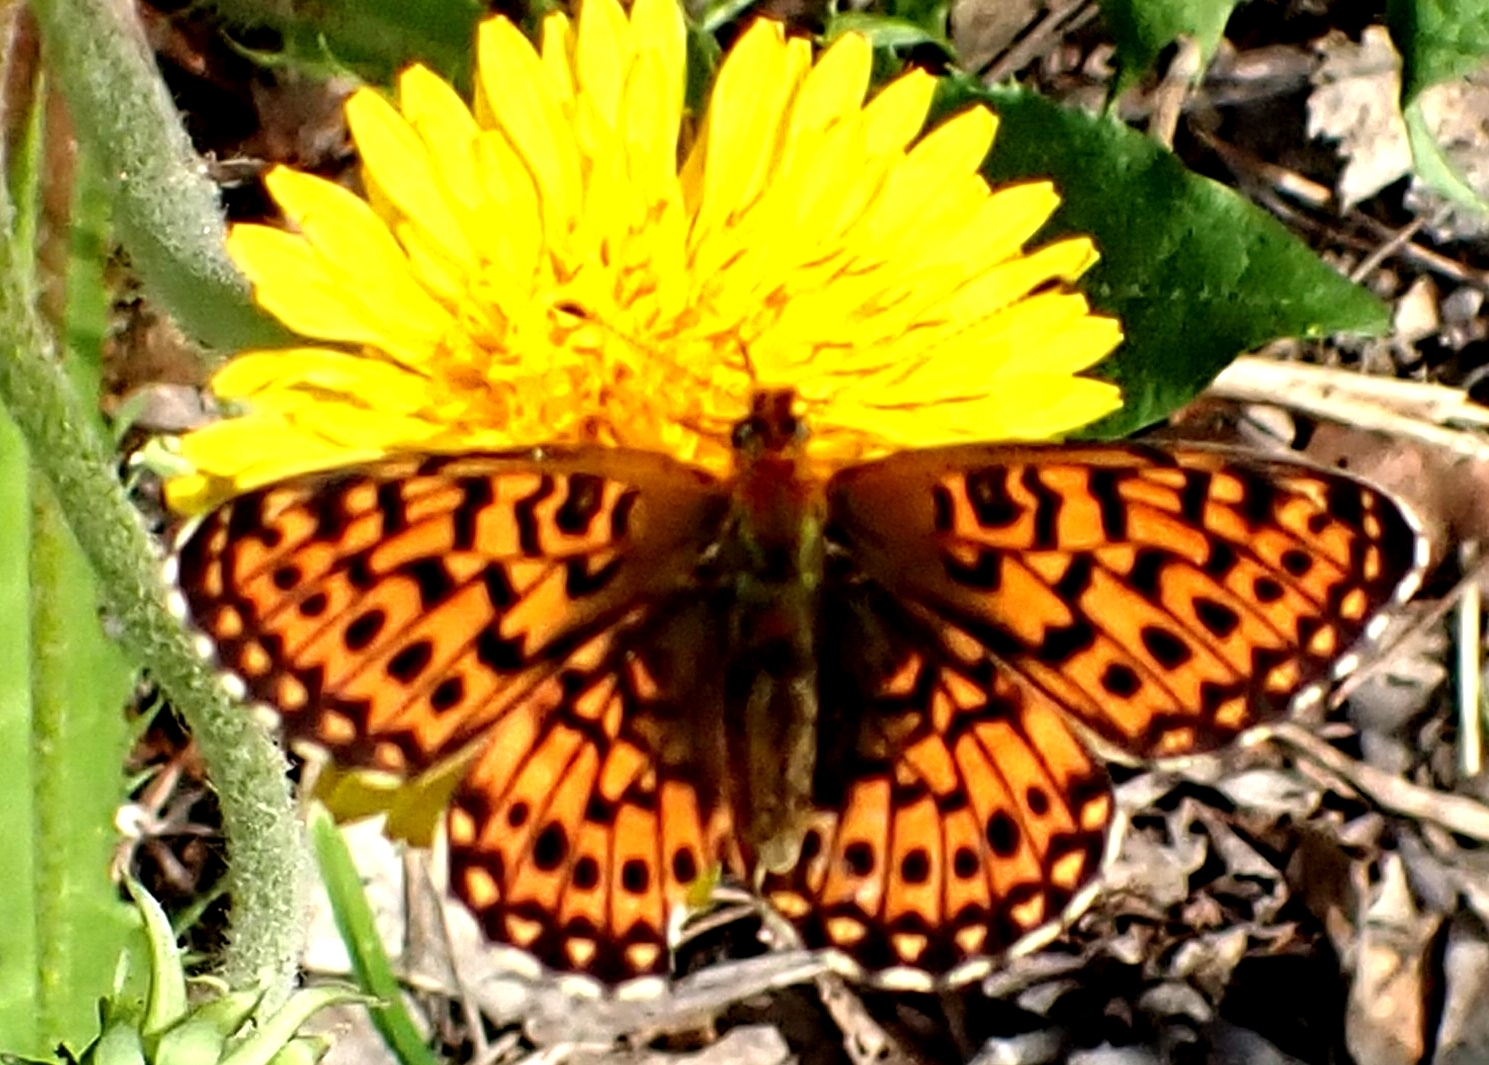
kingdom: Animalia
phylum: Arthropoda
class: Insecta
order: Lepidoptera
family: Nymphalidae
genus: Clossiana
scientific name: Clossiana euphrosyne
